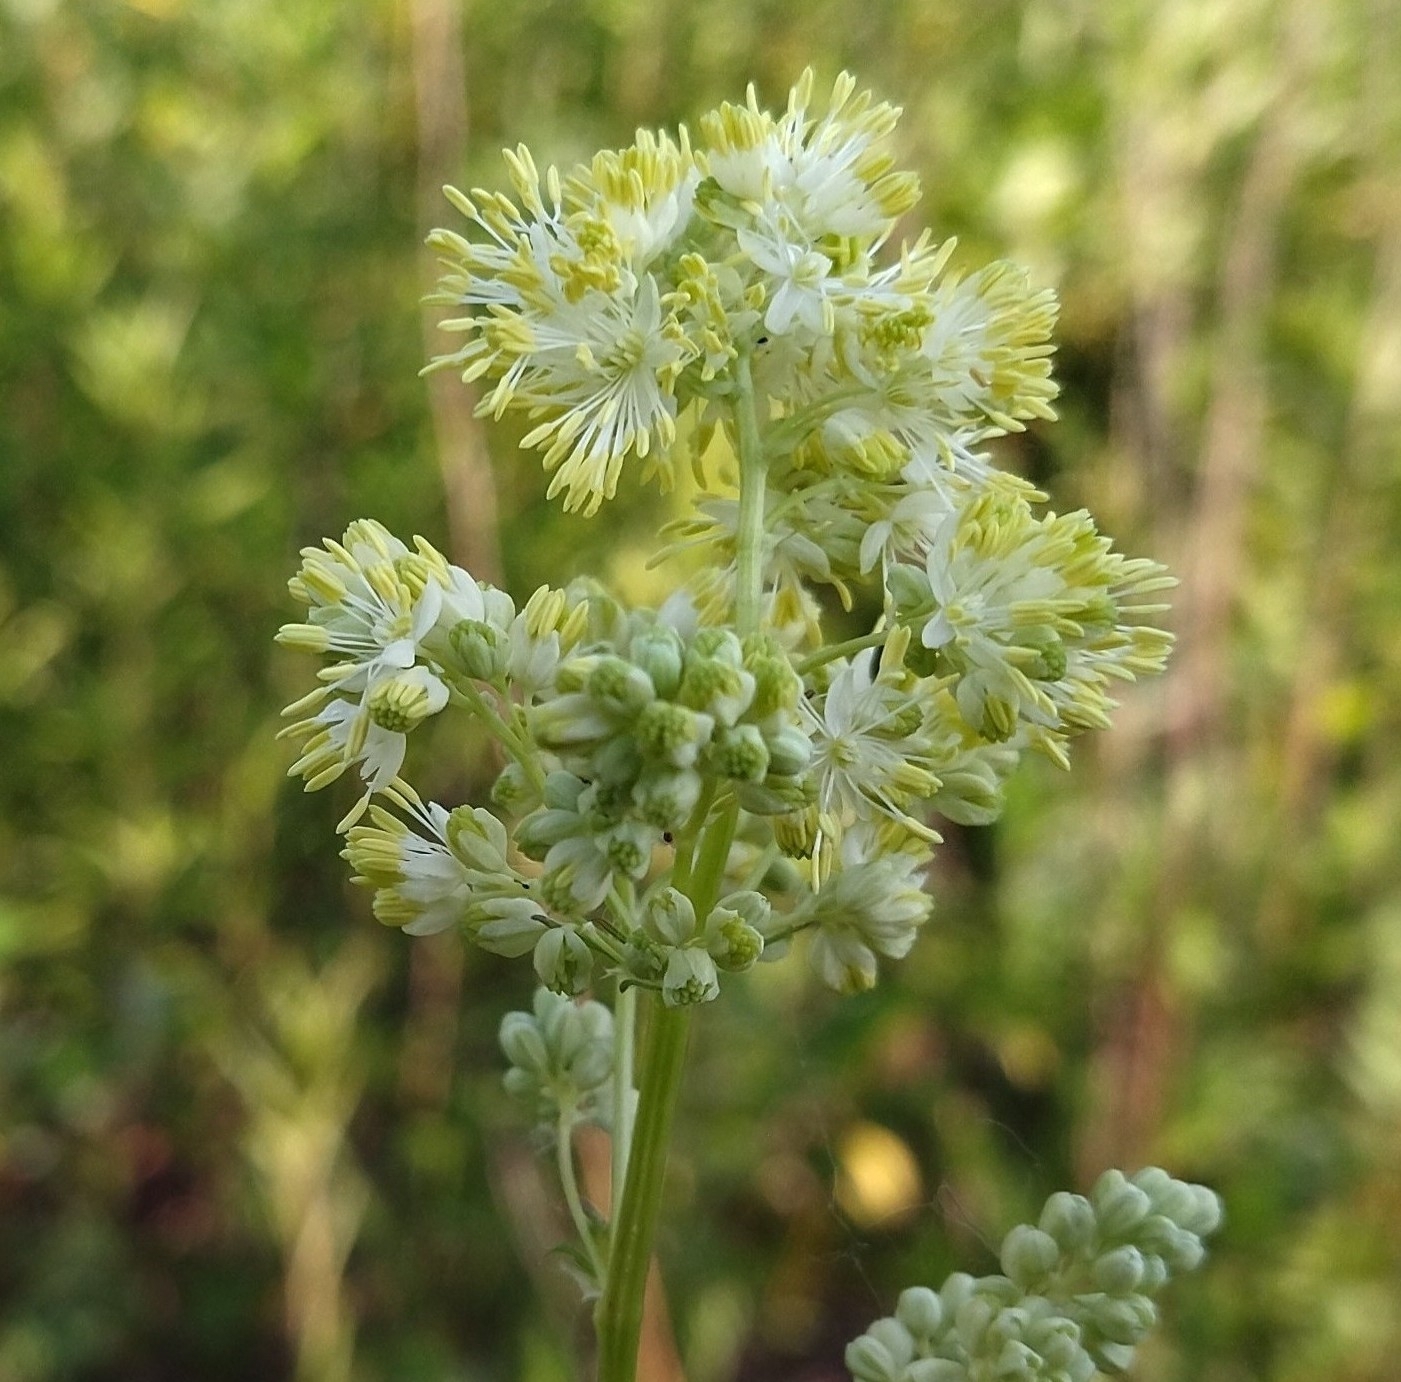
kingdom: Plantae
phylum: Tracheophyta
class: Magnoliopsida
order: Ranunculales
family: Ranunculaceae
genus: Thalictrum
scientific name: Thalictrum lucidum
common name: Shining meadow-rue
